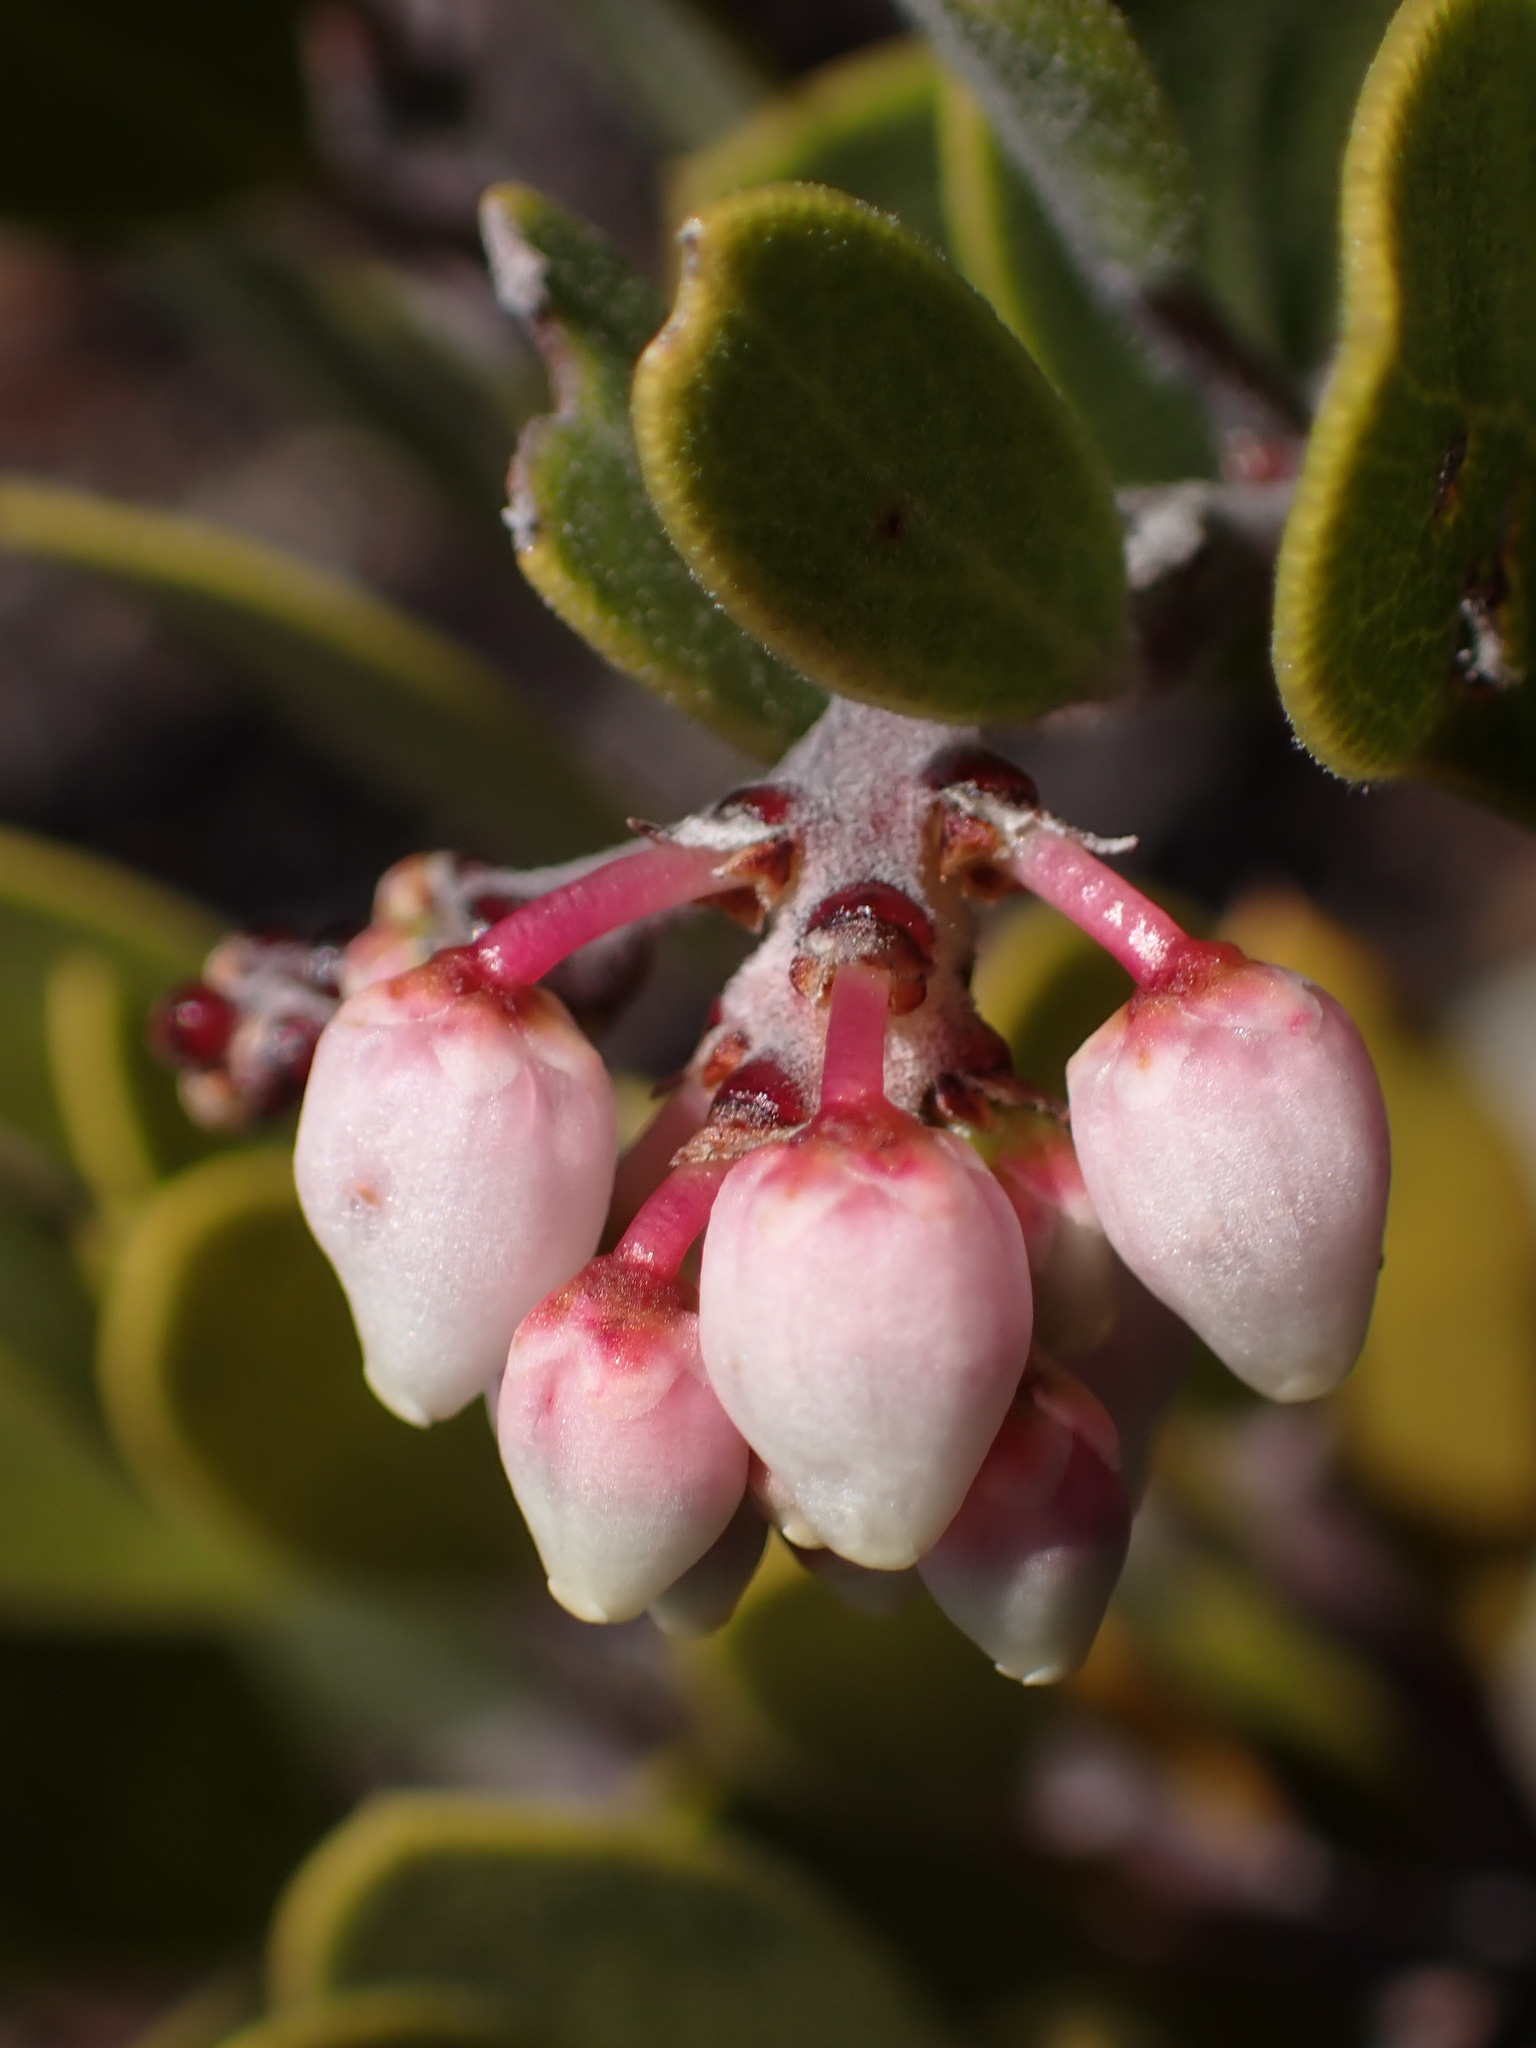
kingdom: Plantae
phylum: Tracheophyta
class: Magnoliopsida
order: Ericales
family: Ericaceae
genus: Arctostaphylos
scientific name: Arctostaphylos montana
